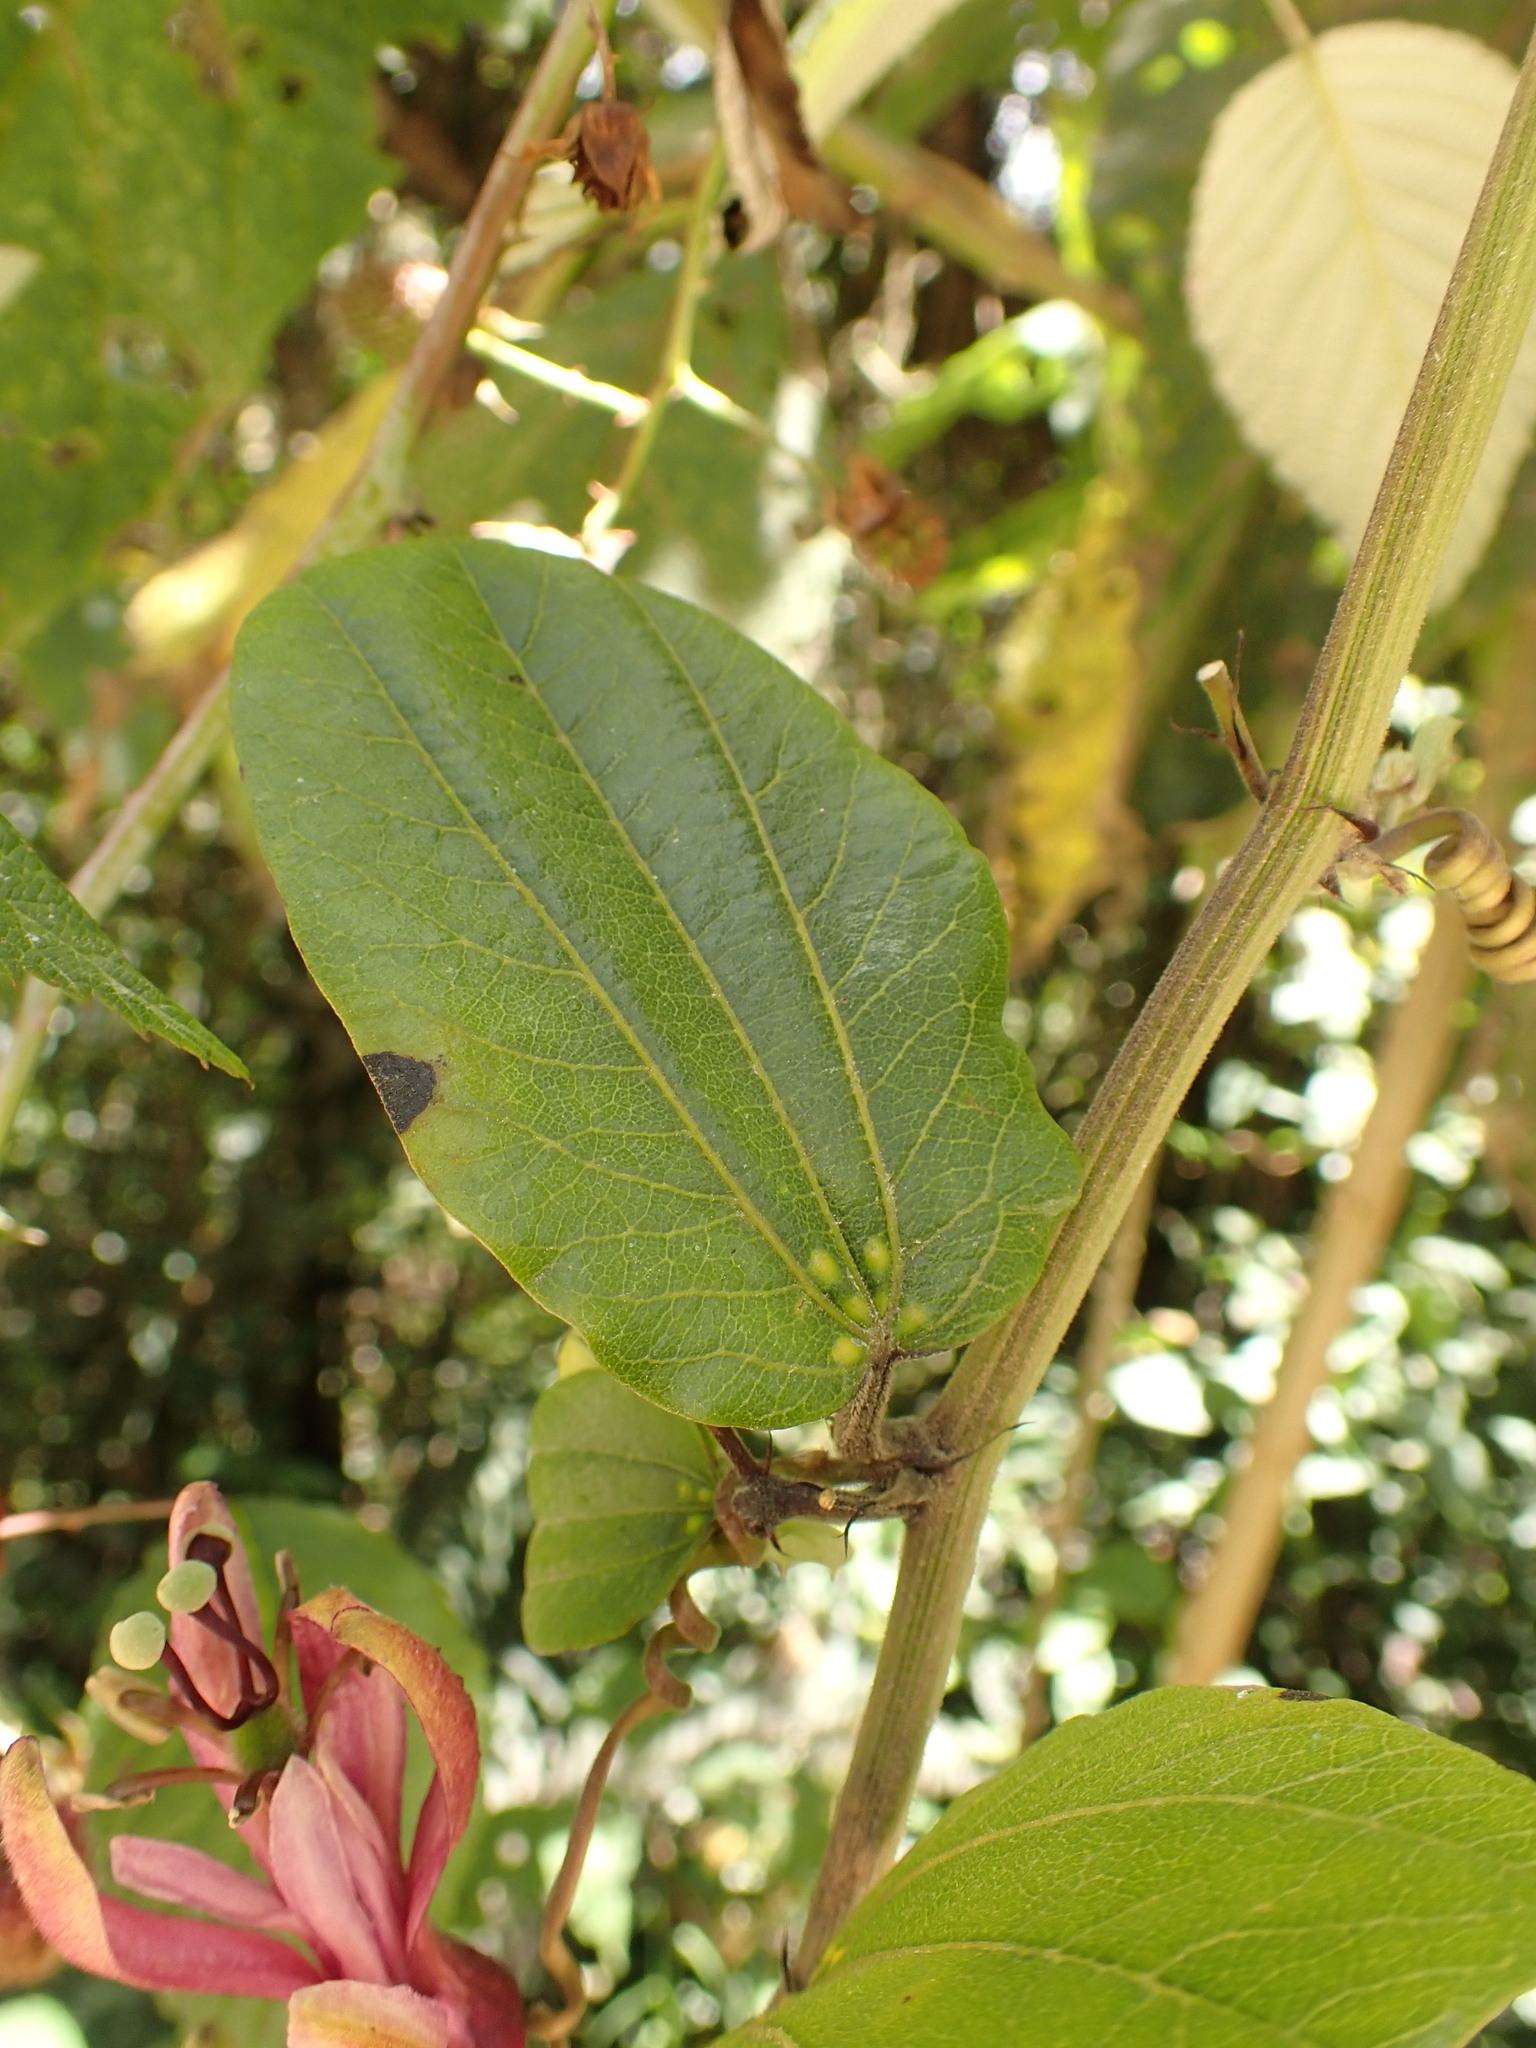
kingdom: Plantae
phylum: Tracheophyta
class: Magnoliopsida
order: Malpighiales
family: Passifloraceae
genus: Passiflora
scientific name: Passiflora azeroana
